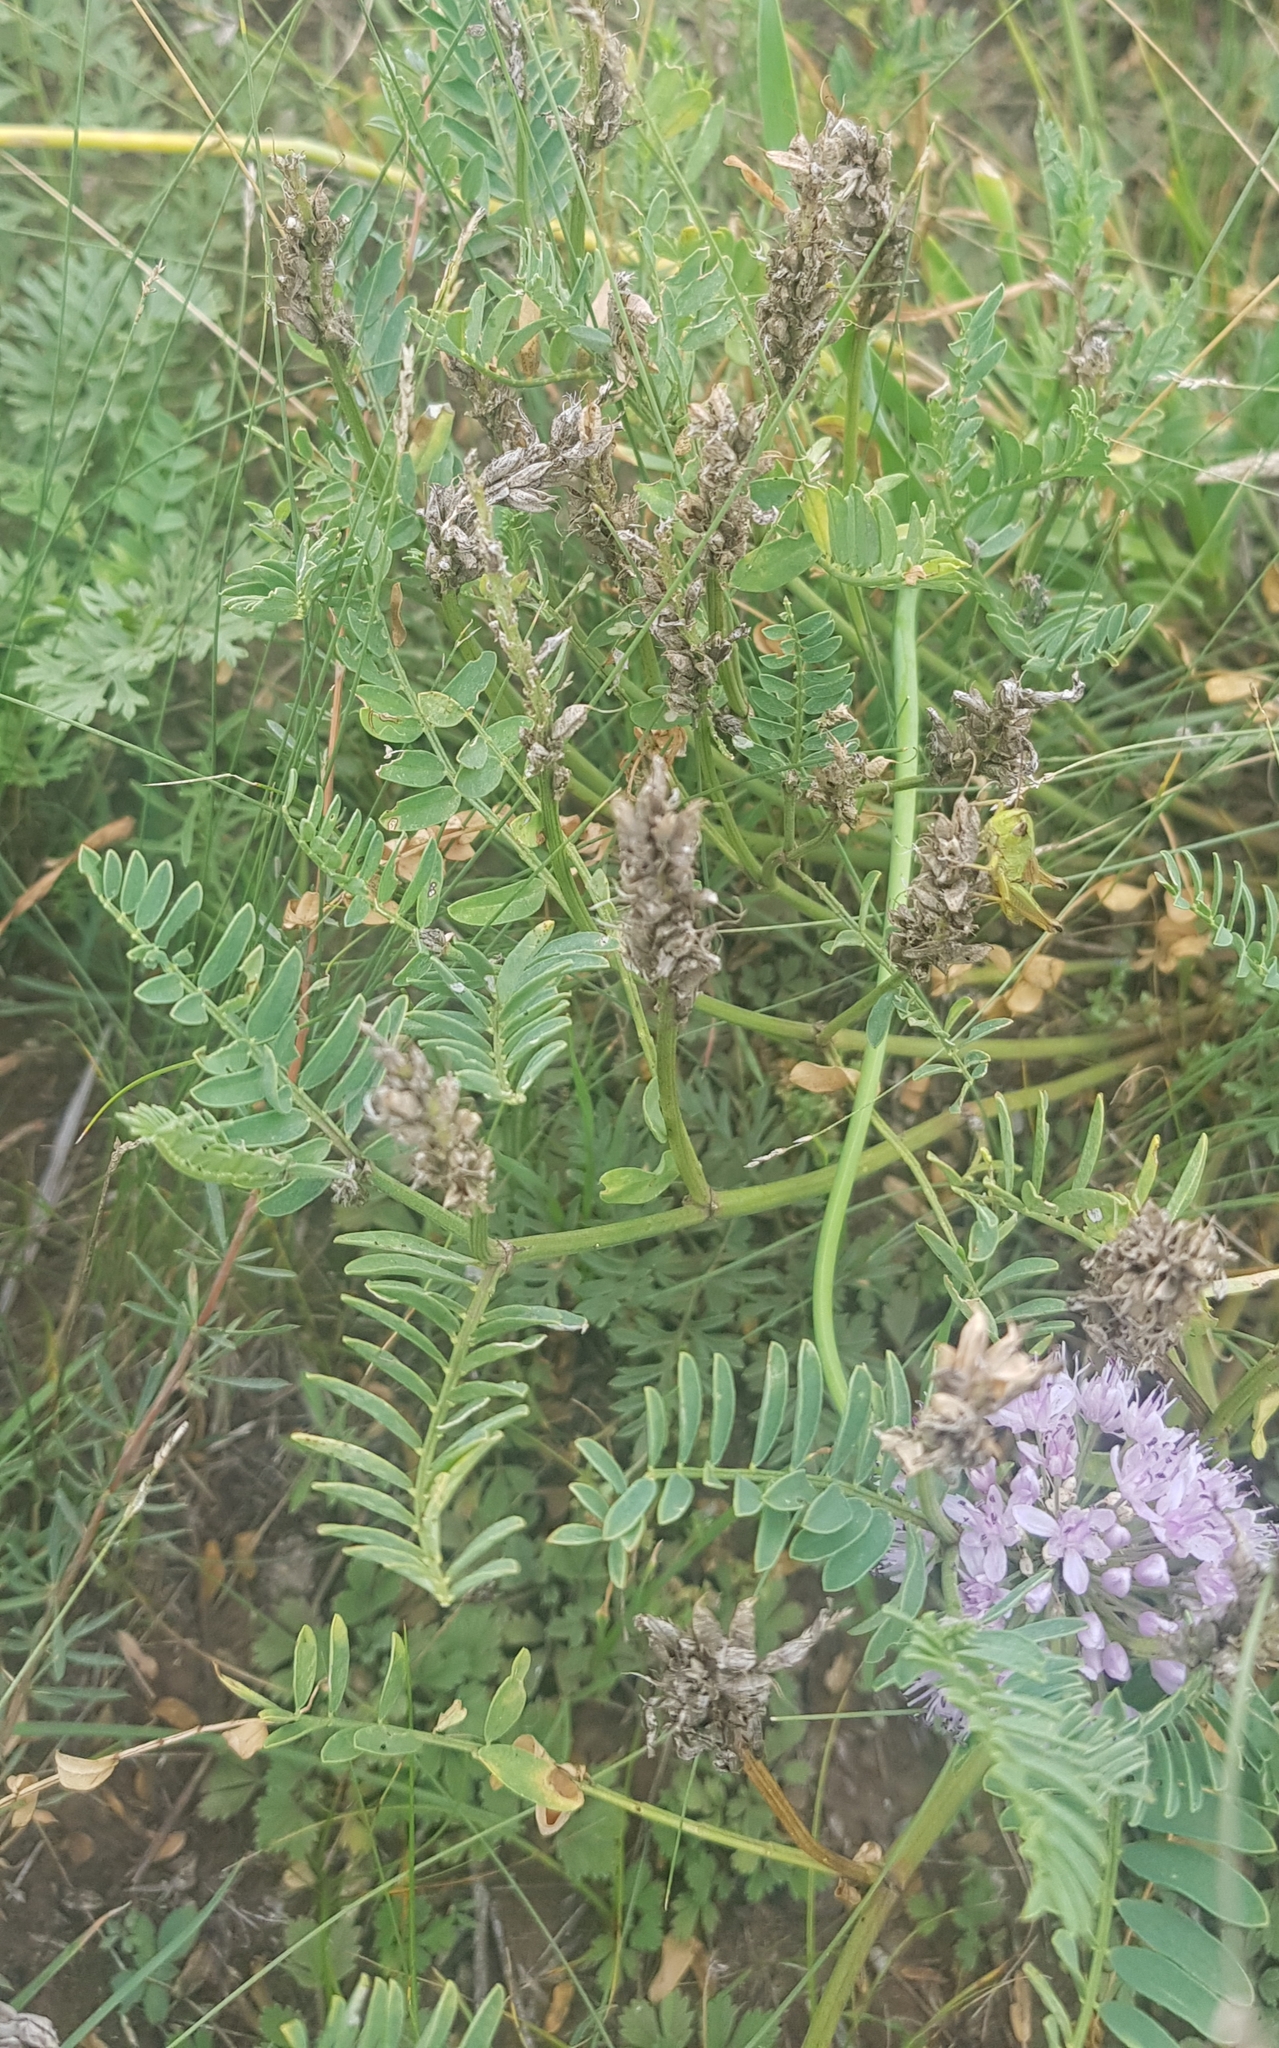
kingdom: Plantae
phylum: Tracheophyta
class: Magnoliopsida
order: Fabales
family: Fabaceae
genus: Astragalus
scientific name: Astragalus danicus
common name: Purple milk-vetch
